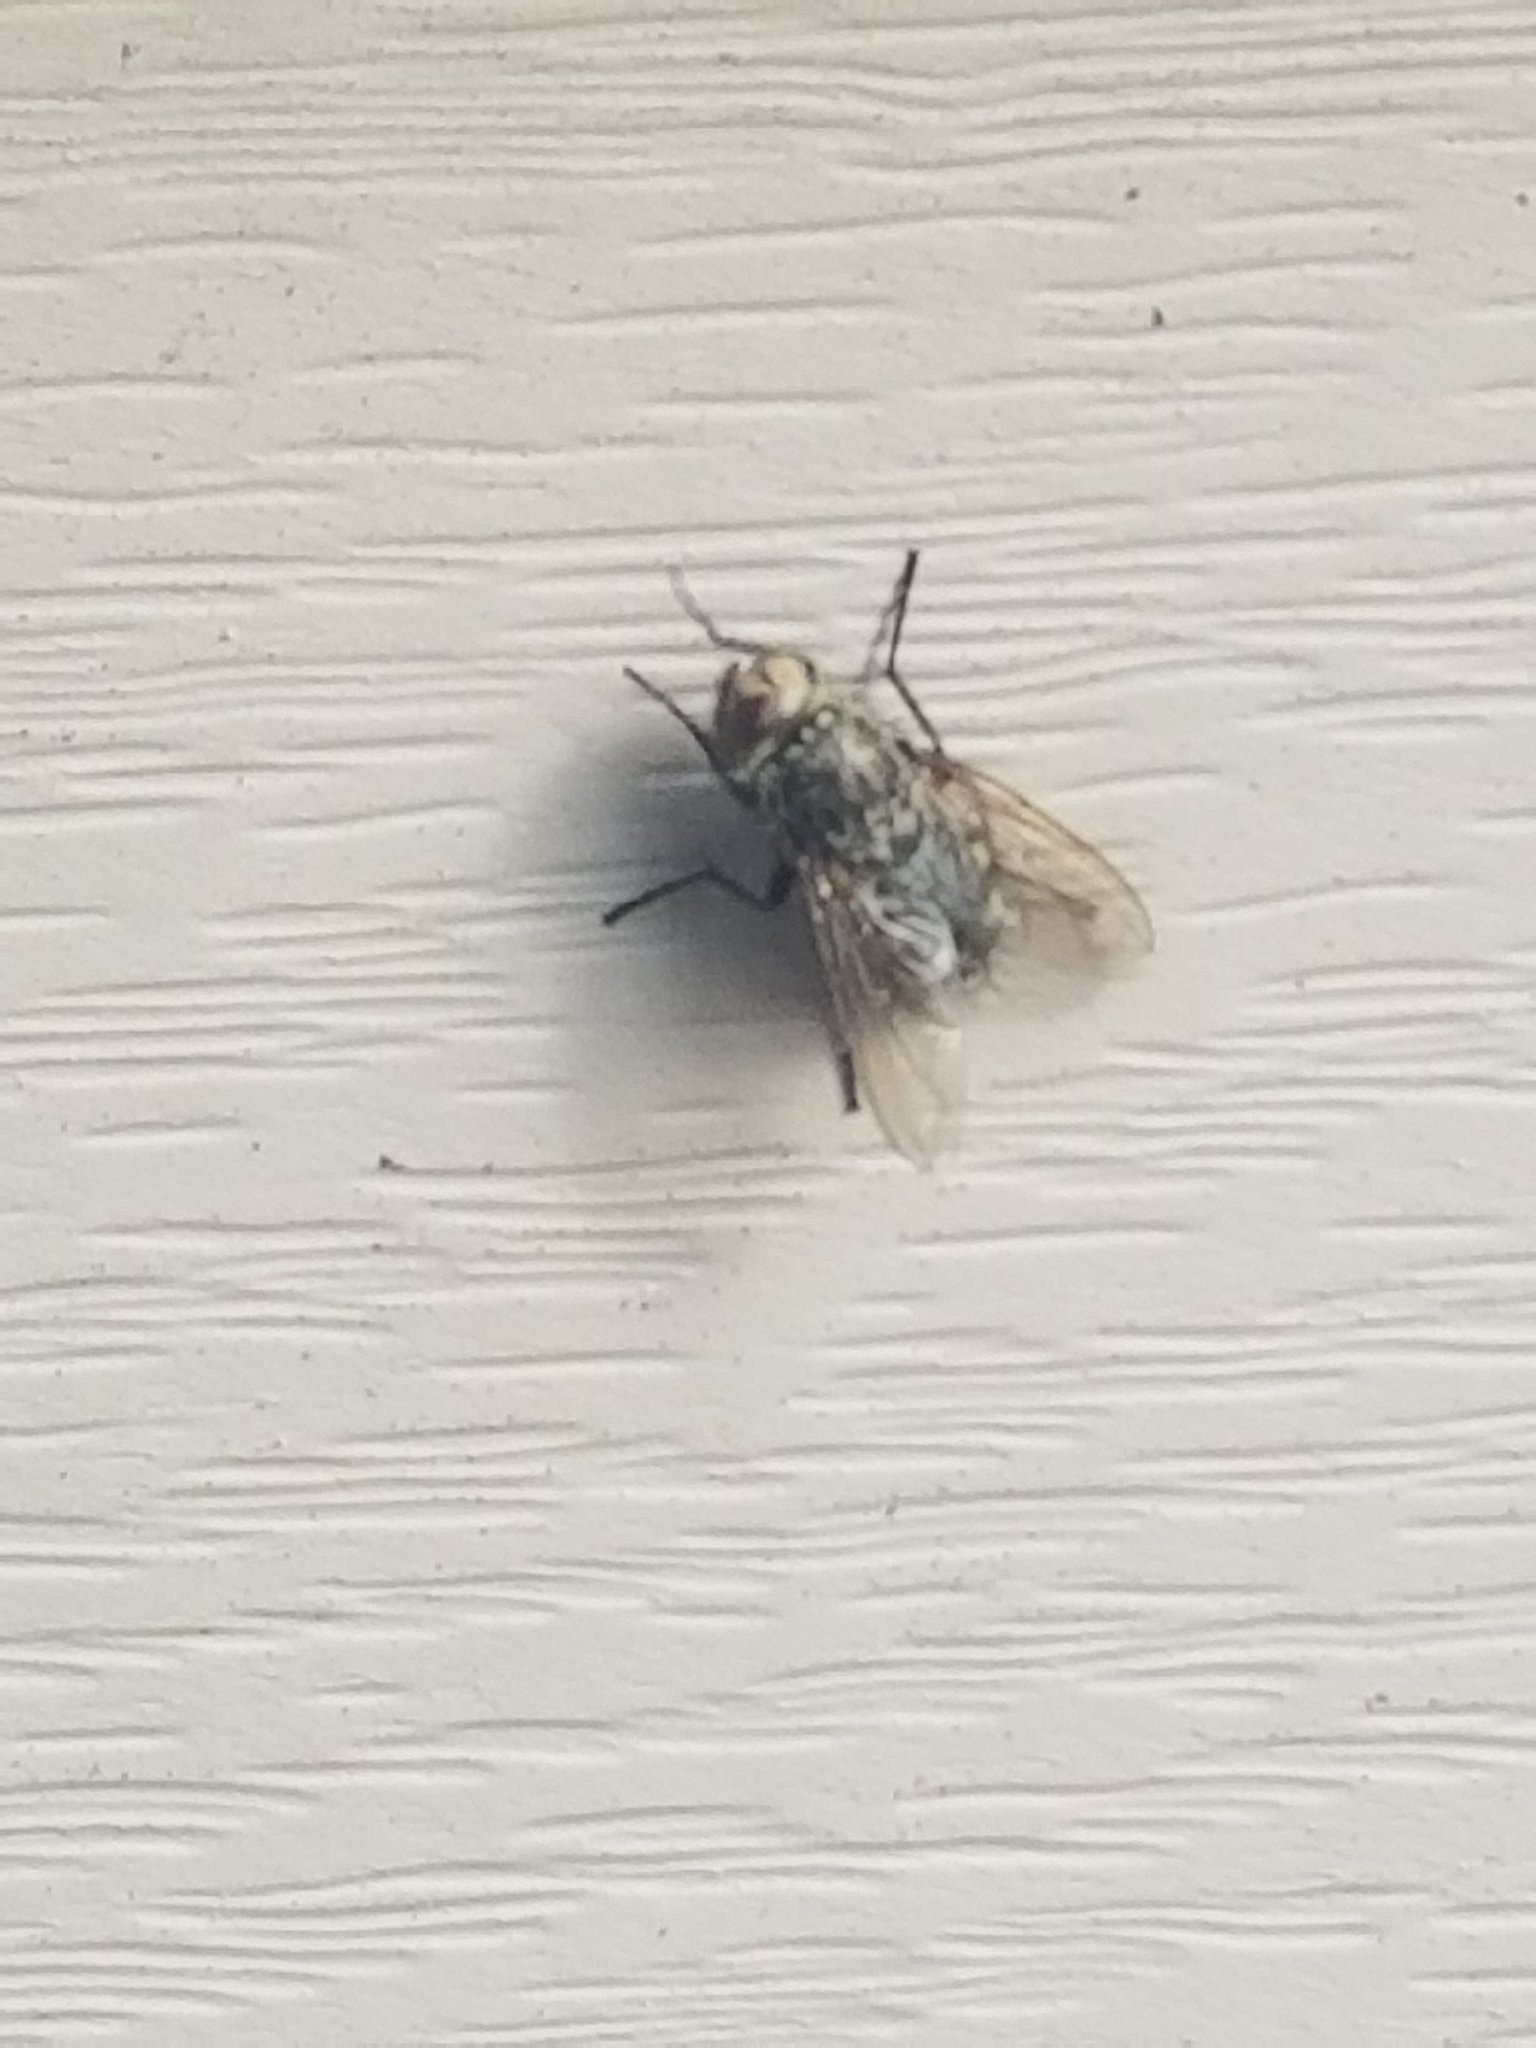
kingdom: Animalia
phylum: Arthropoda
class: Insecta
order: Diptera
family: Polleniidae
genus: Pollenia
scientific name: Pollenia
